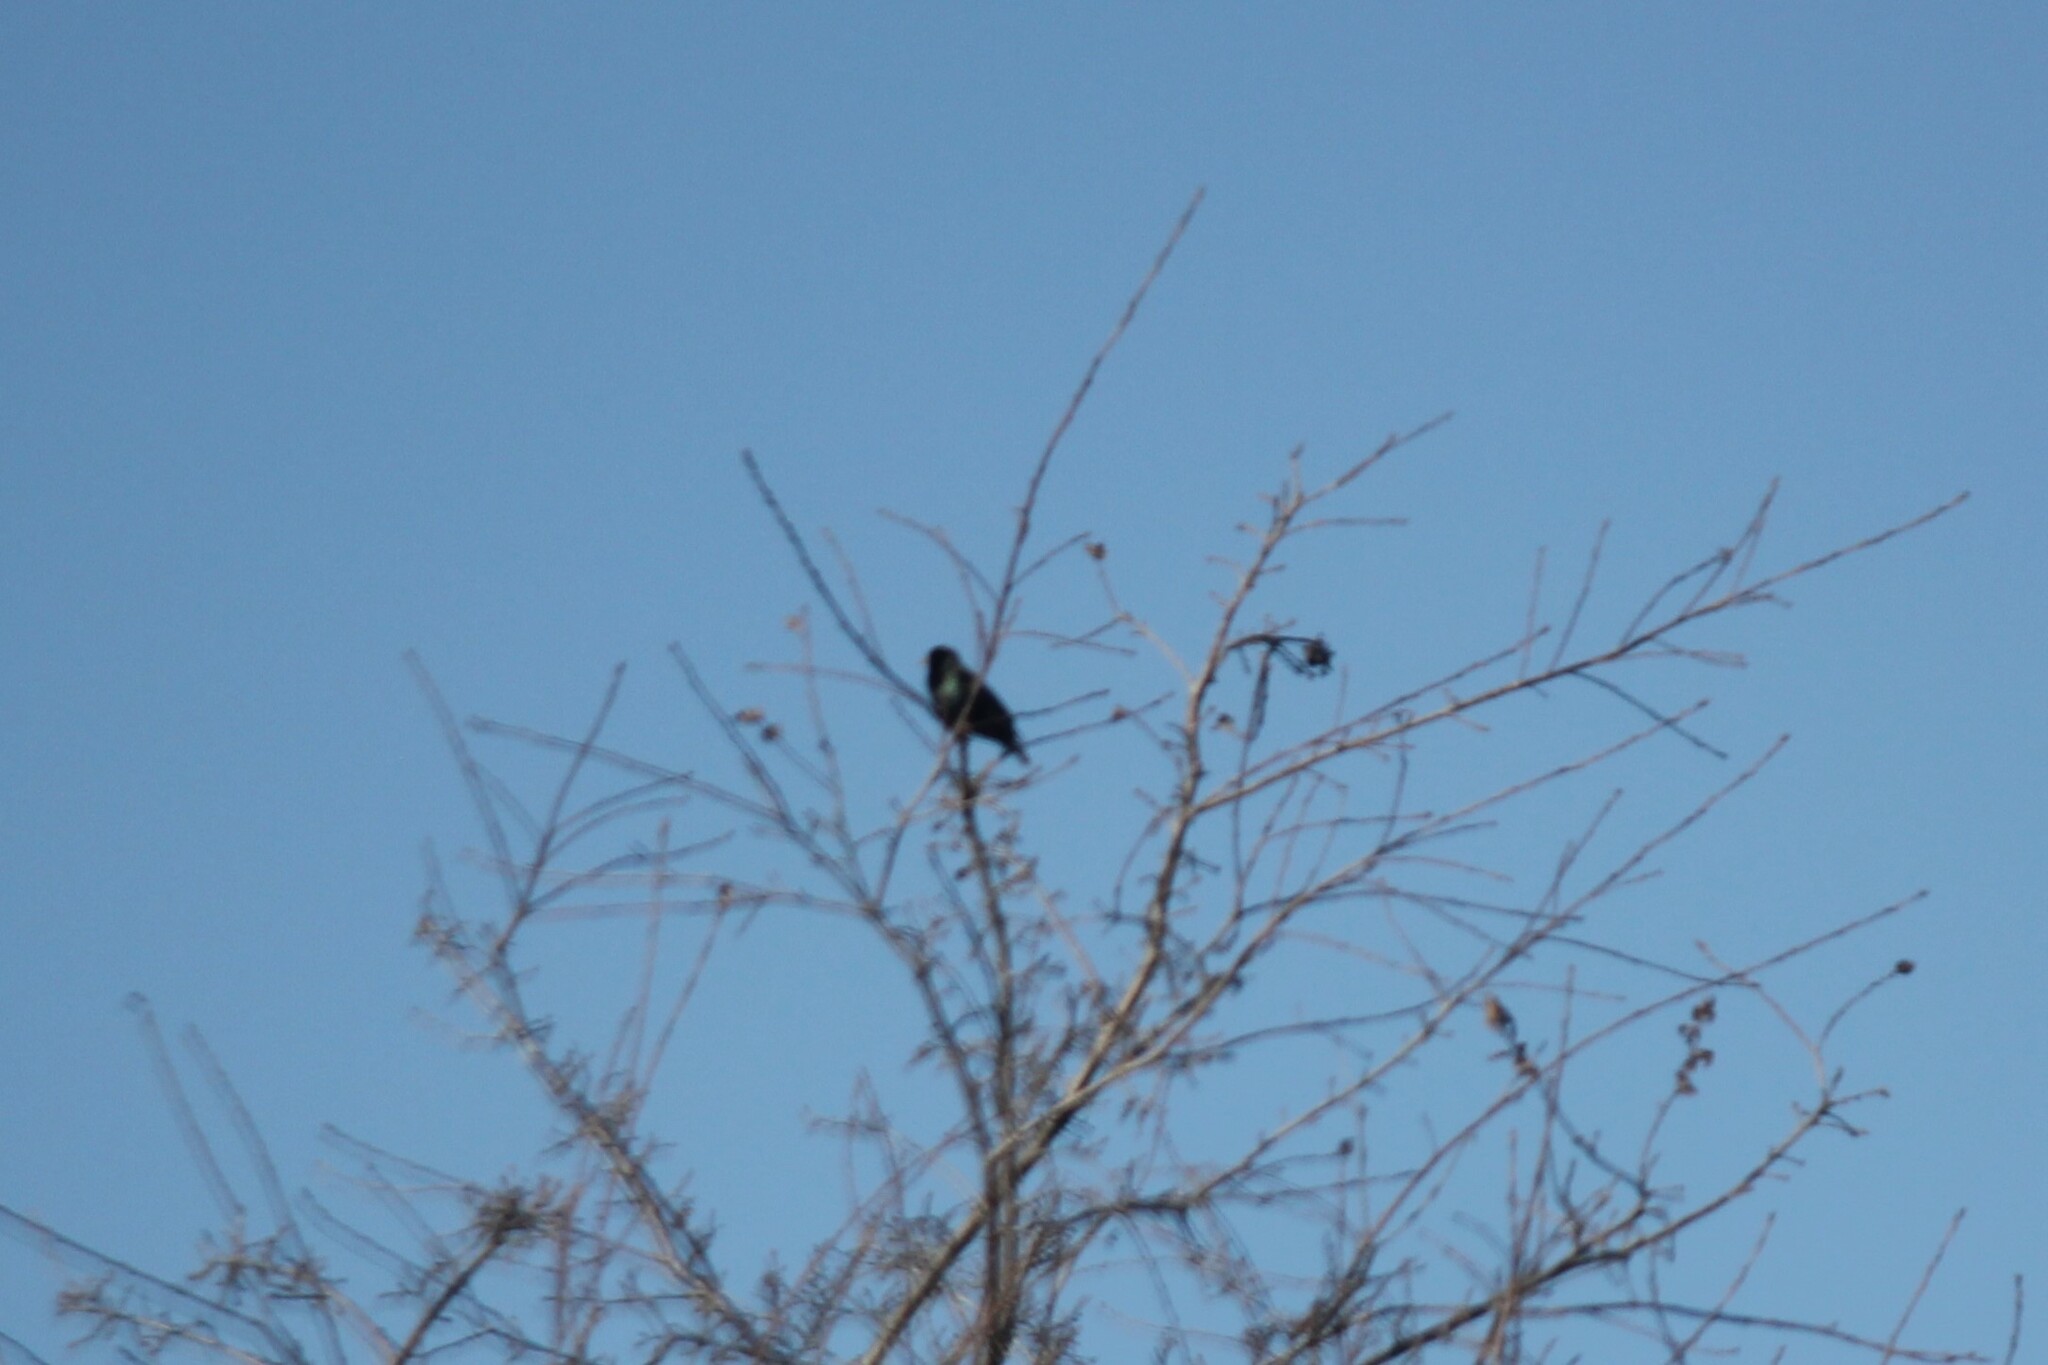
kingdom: Animalia
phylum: Chordata
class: Aves
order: Passeriformes
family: Sturnidae
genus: Sturnus
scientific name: Sturnus vulgaris
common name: Common starling
